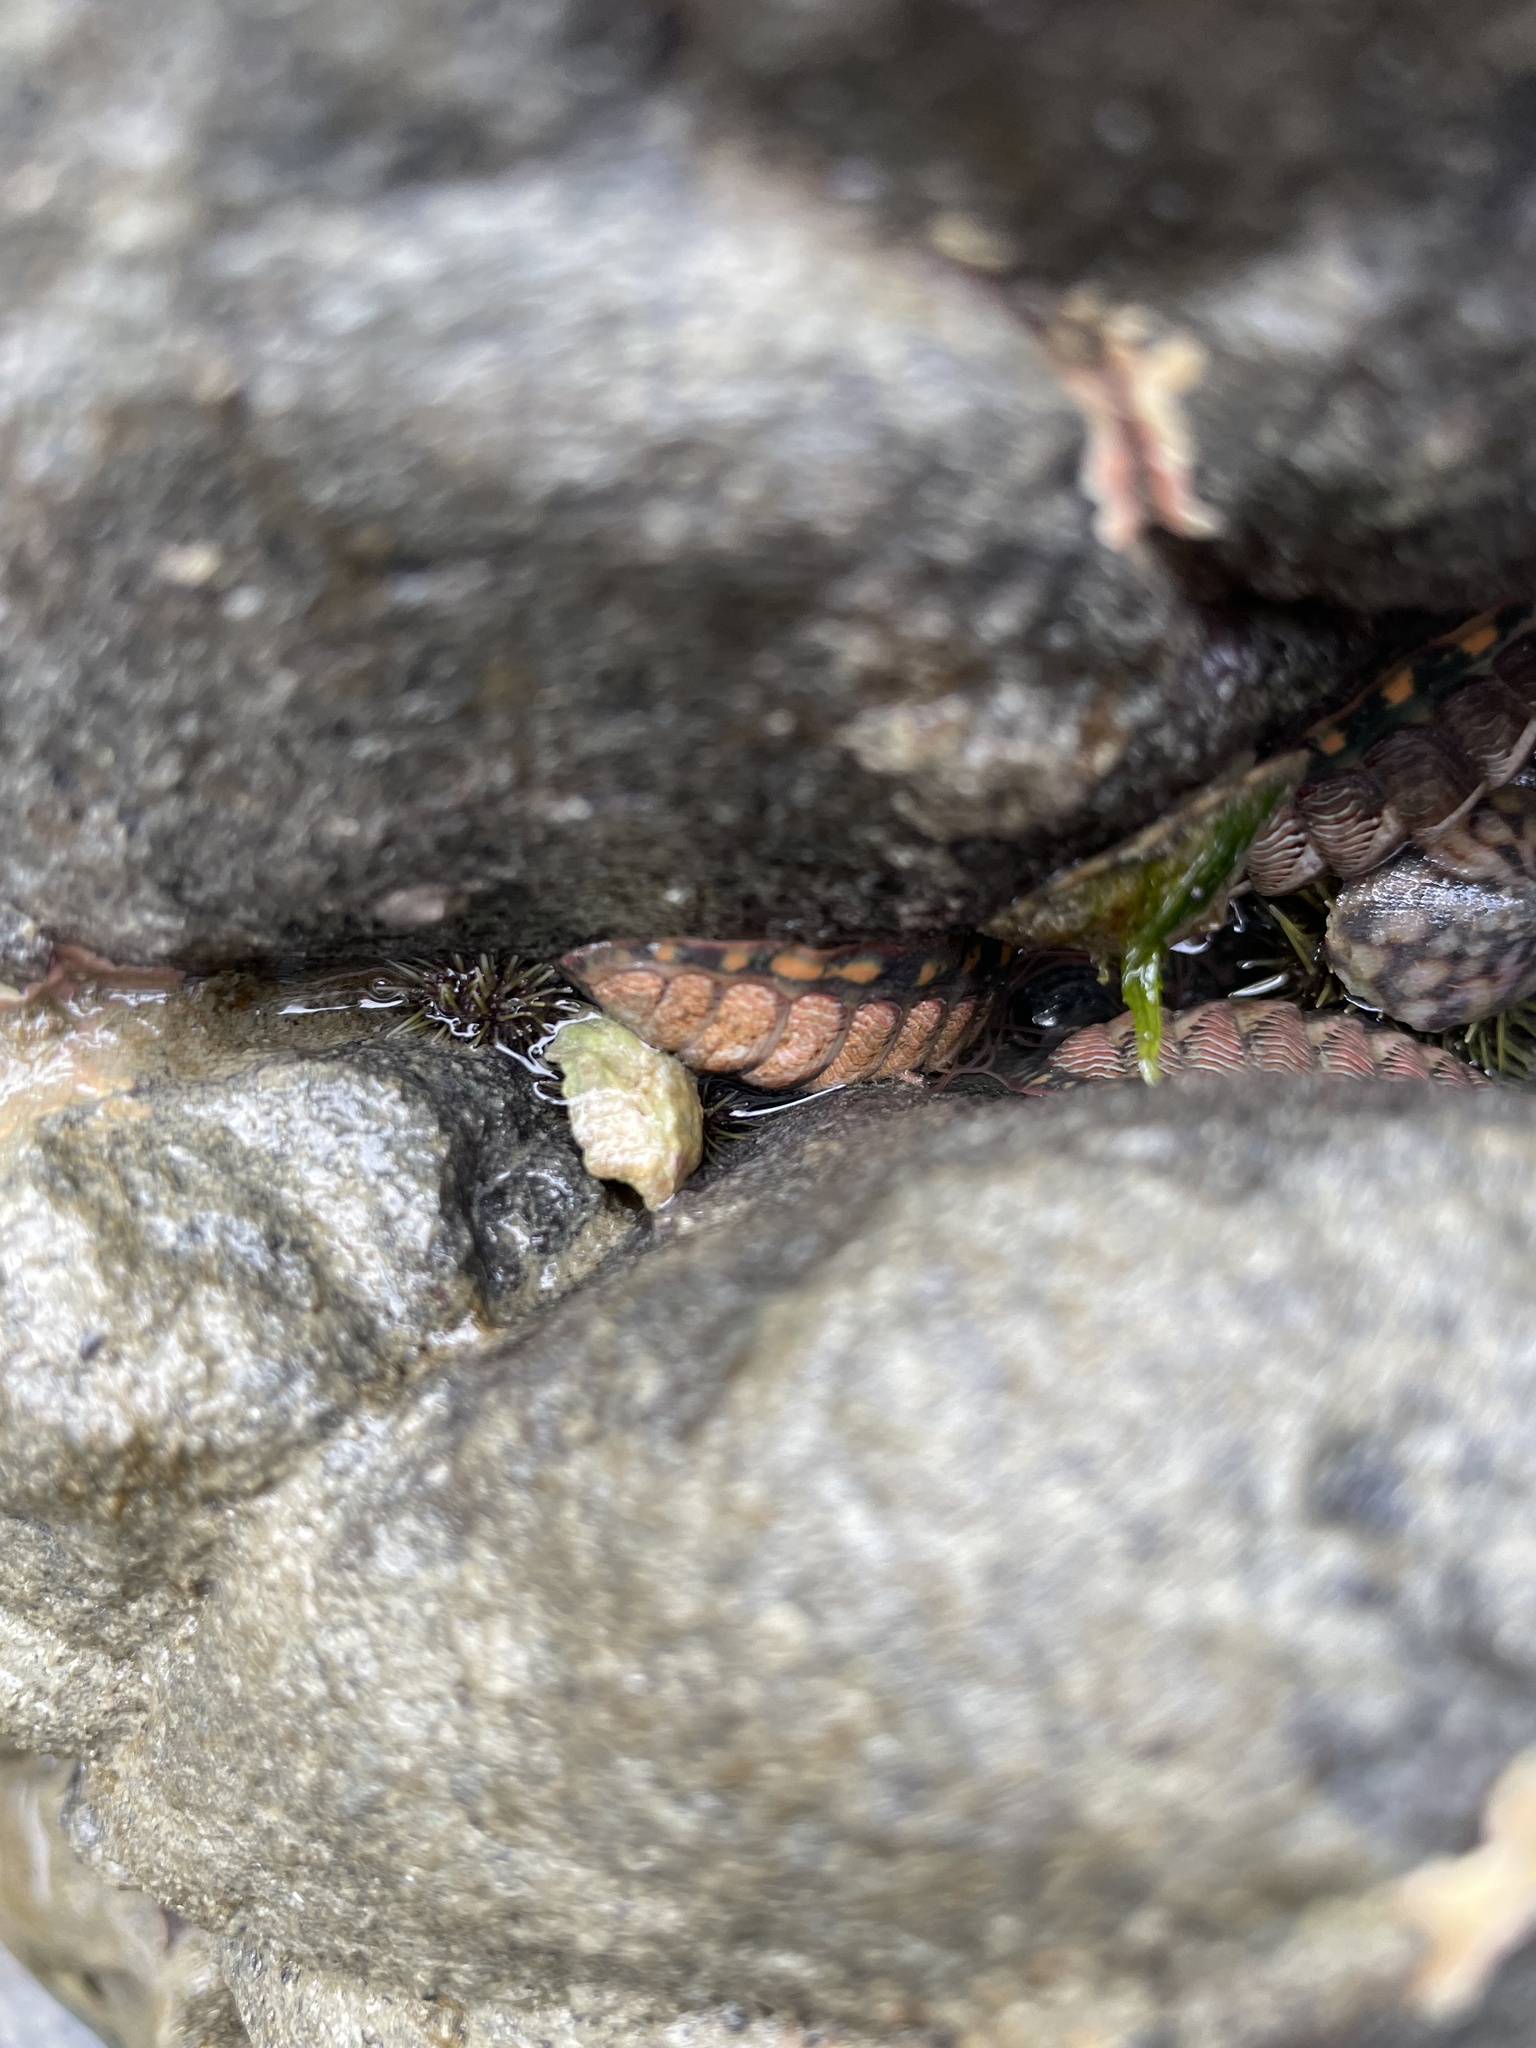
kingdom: Animalia
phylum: Mollusca
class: Polyplacophora
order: Chitonida
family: Tonicellidae
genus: Tonicella
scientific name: Tonicella lineata
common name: Lined chiton
